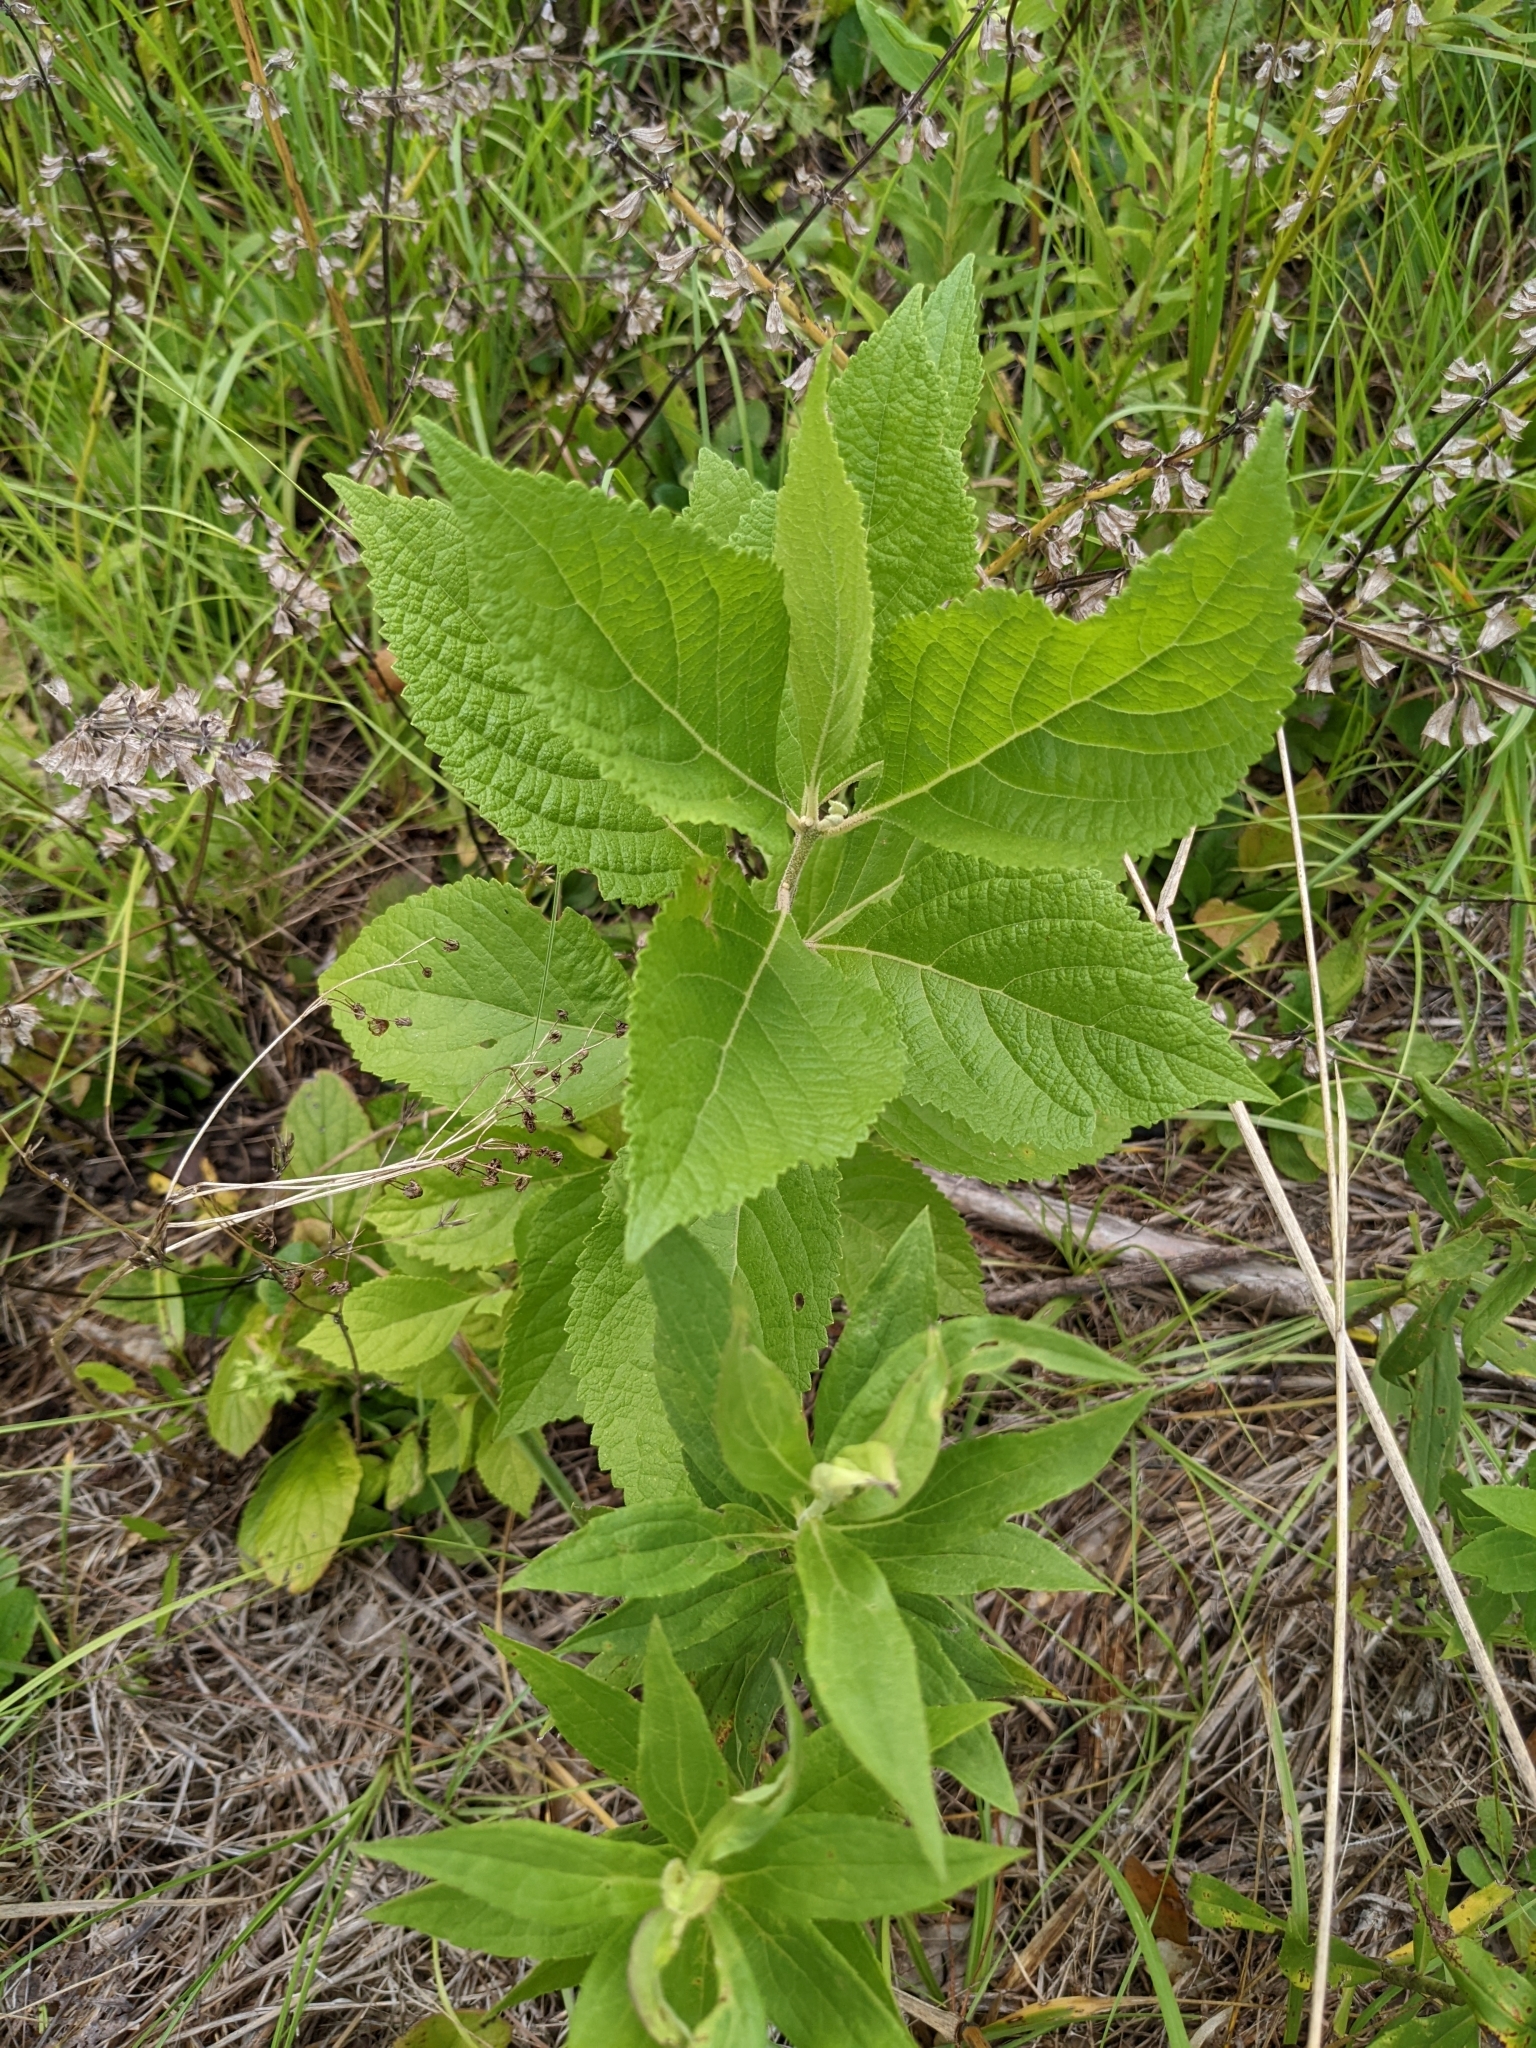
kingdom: Plantae
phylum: Tracheophyta
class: Magnoliopsida
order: Lamiales
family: Lamiaceae
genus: Callicarpa
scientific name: Callicarpa americana
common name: American beautyberry
